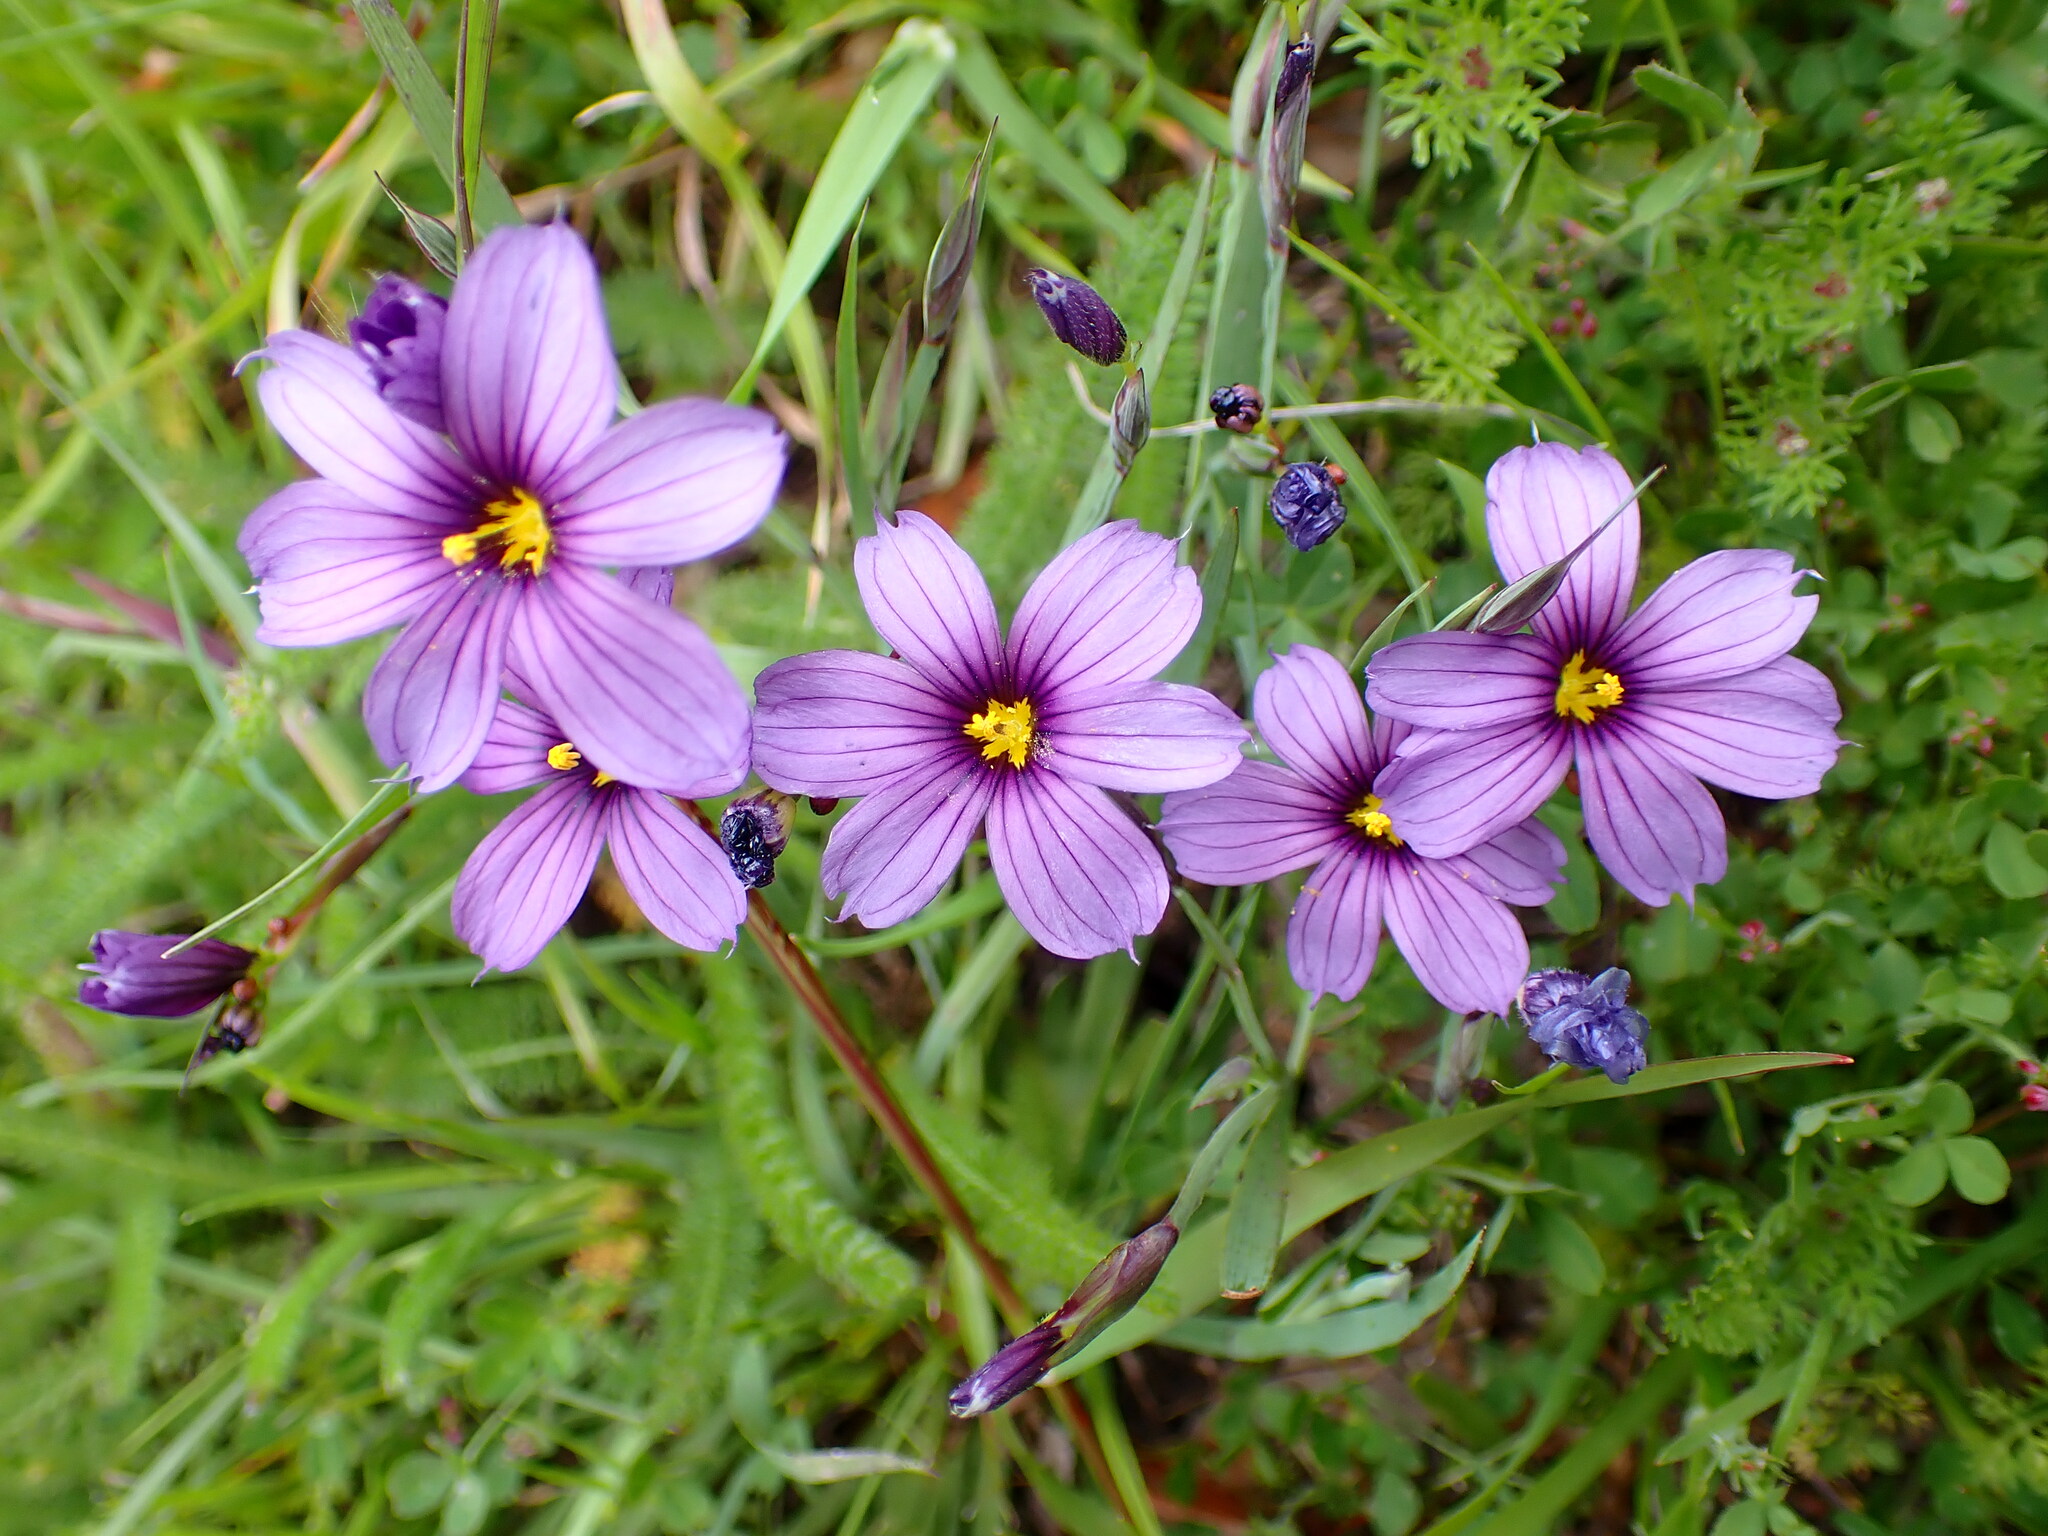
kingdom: Plantae
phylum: Tracheophyta
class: Liliopsida
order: Asparagales
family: Iridaceae
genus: Sisyrinchium
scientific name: Sisyrinchium bellum
